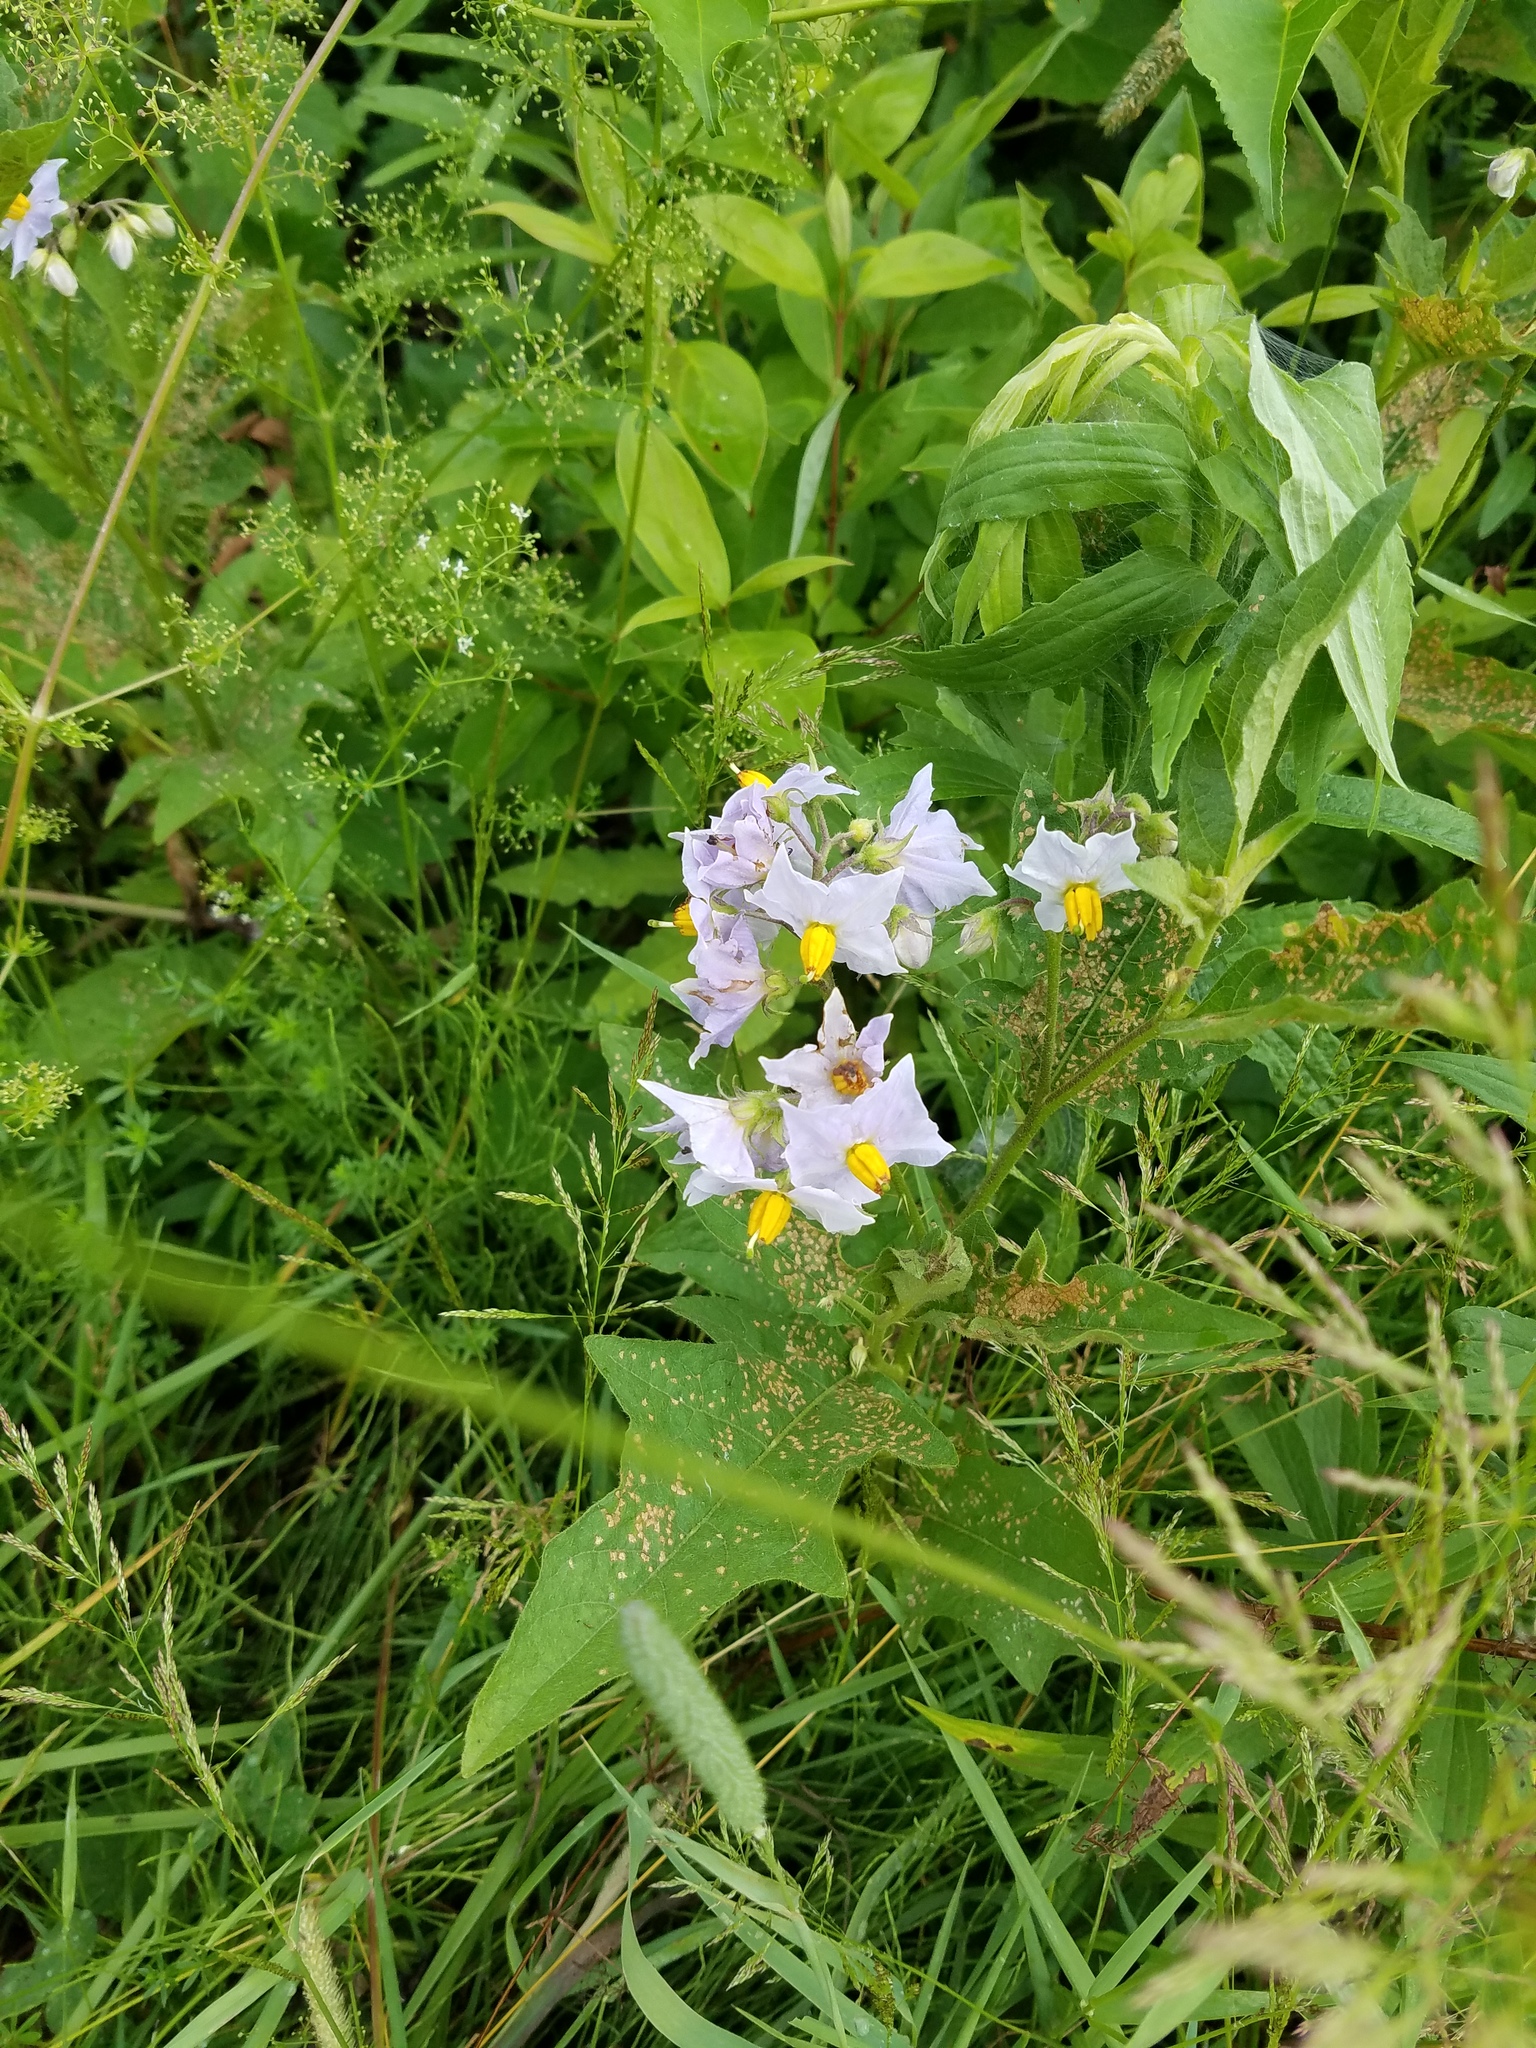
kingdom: Plantae
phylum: Tracheophyta
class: Magnoliopsida
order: Solanales
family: Solanaceae
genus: Solanum
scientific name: Solanum carolinense
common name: Horse-nettle
